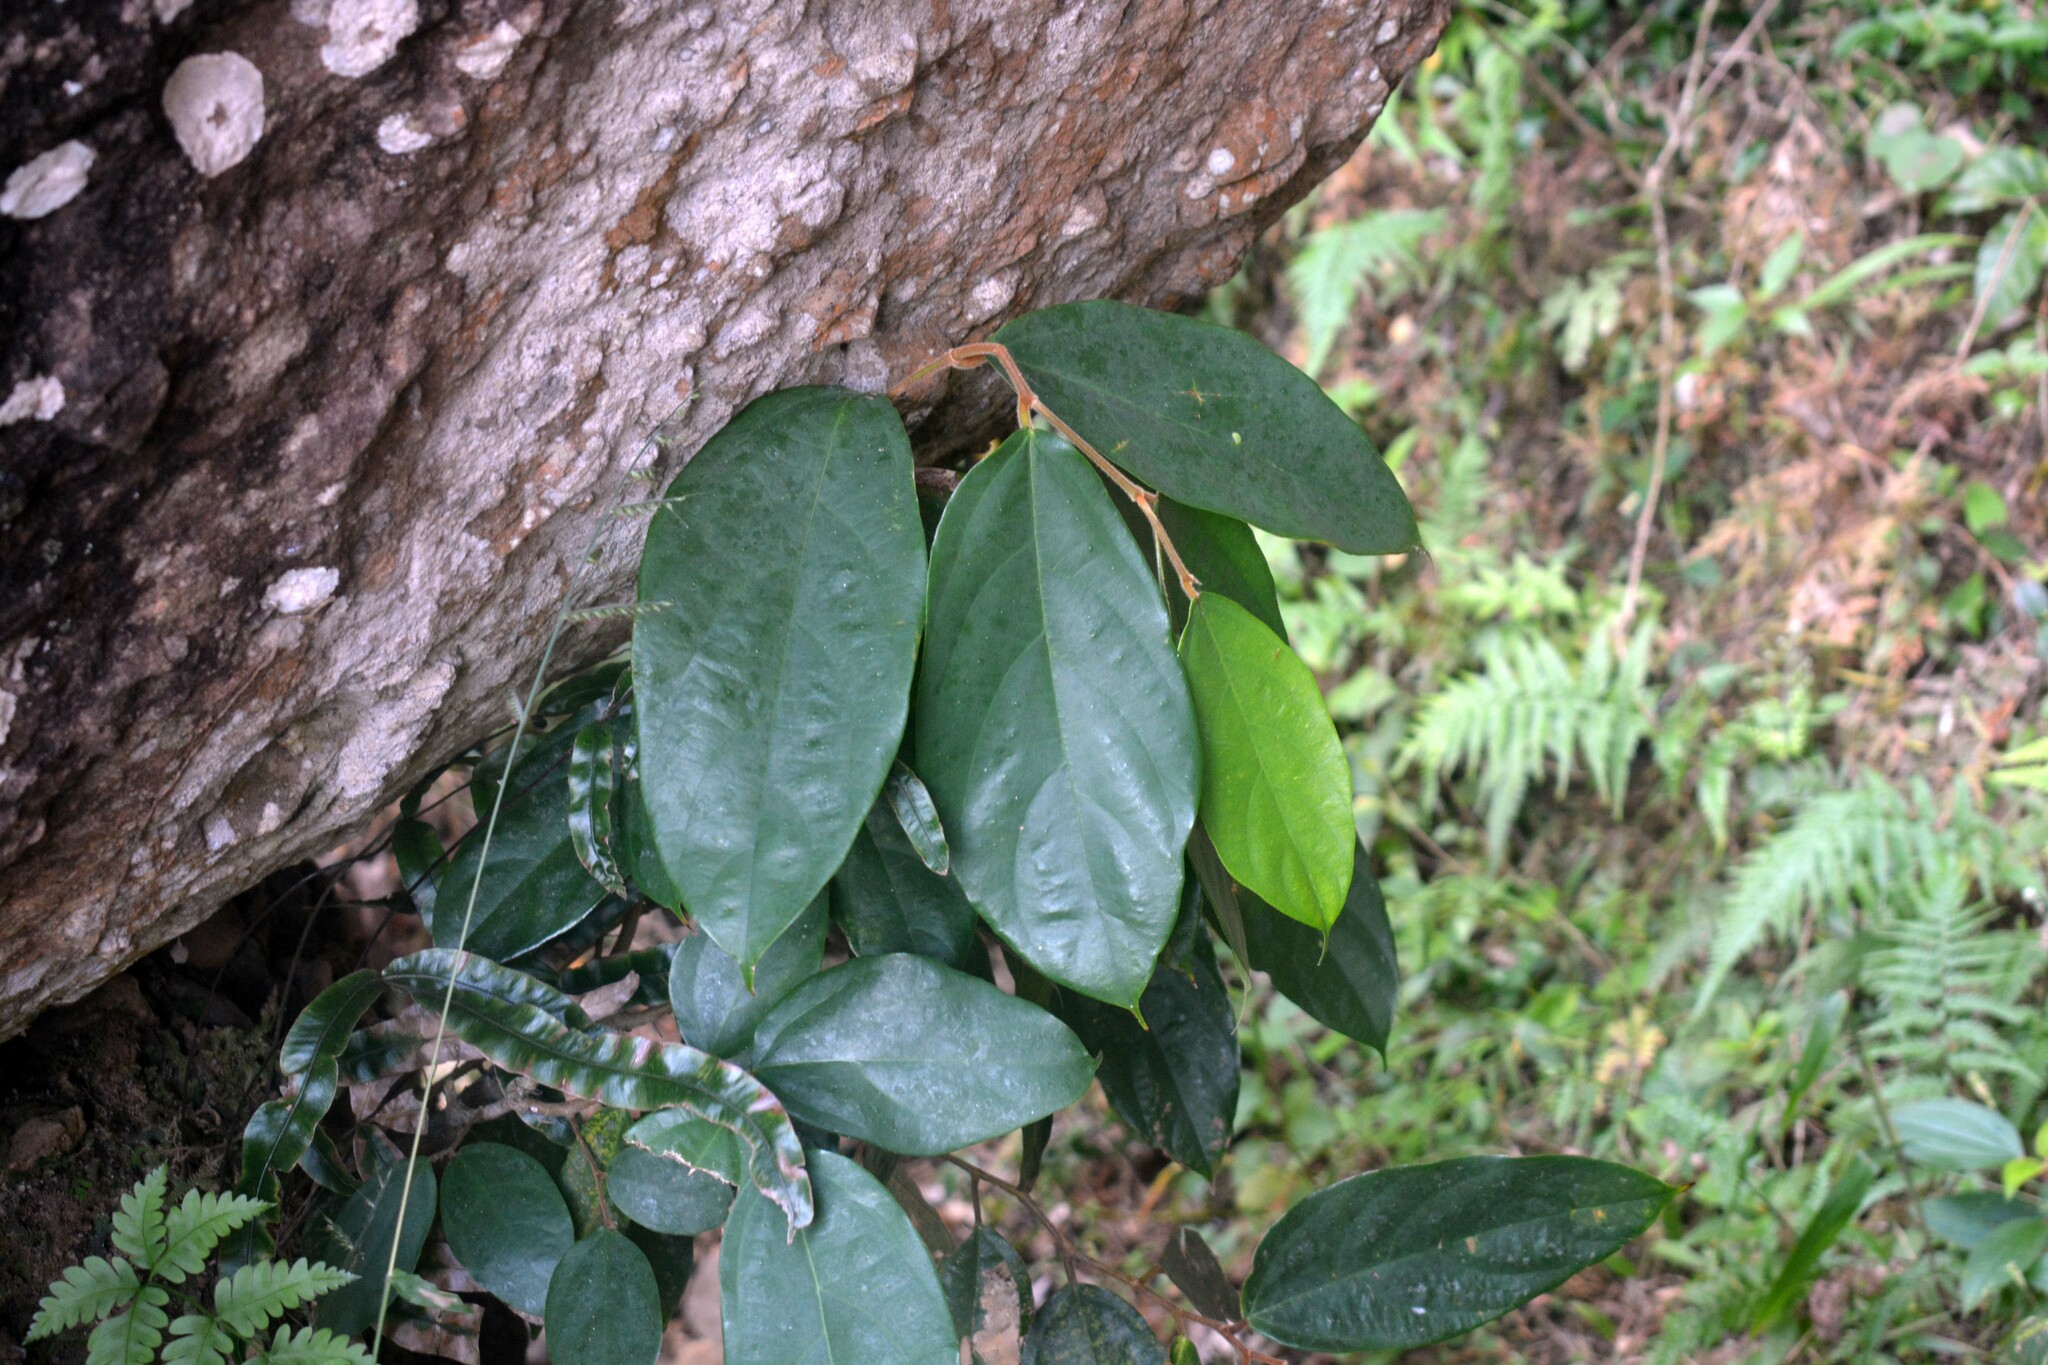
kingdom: Plantae
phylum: Tracheophyta
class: Magnoliopsida
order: Malvales
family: Malvaceae
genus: Pterospermum
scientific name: Pterospermum javanicum
